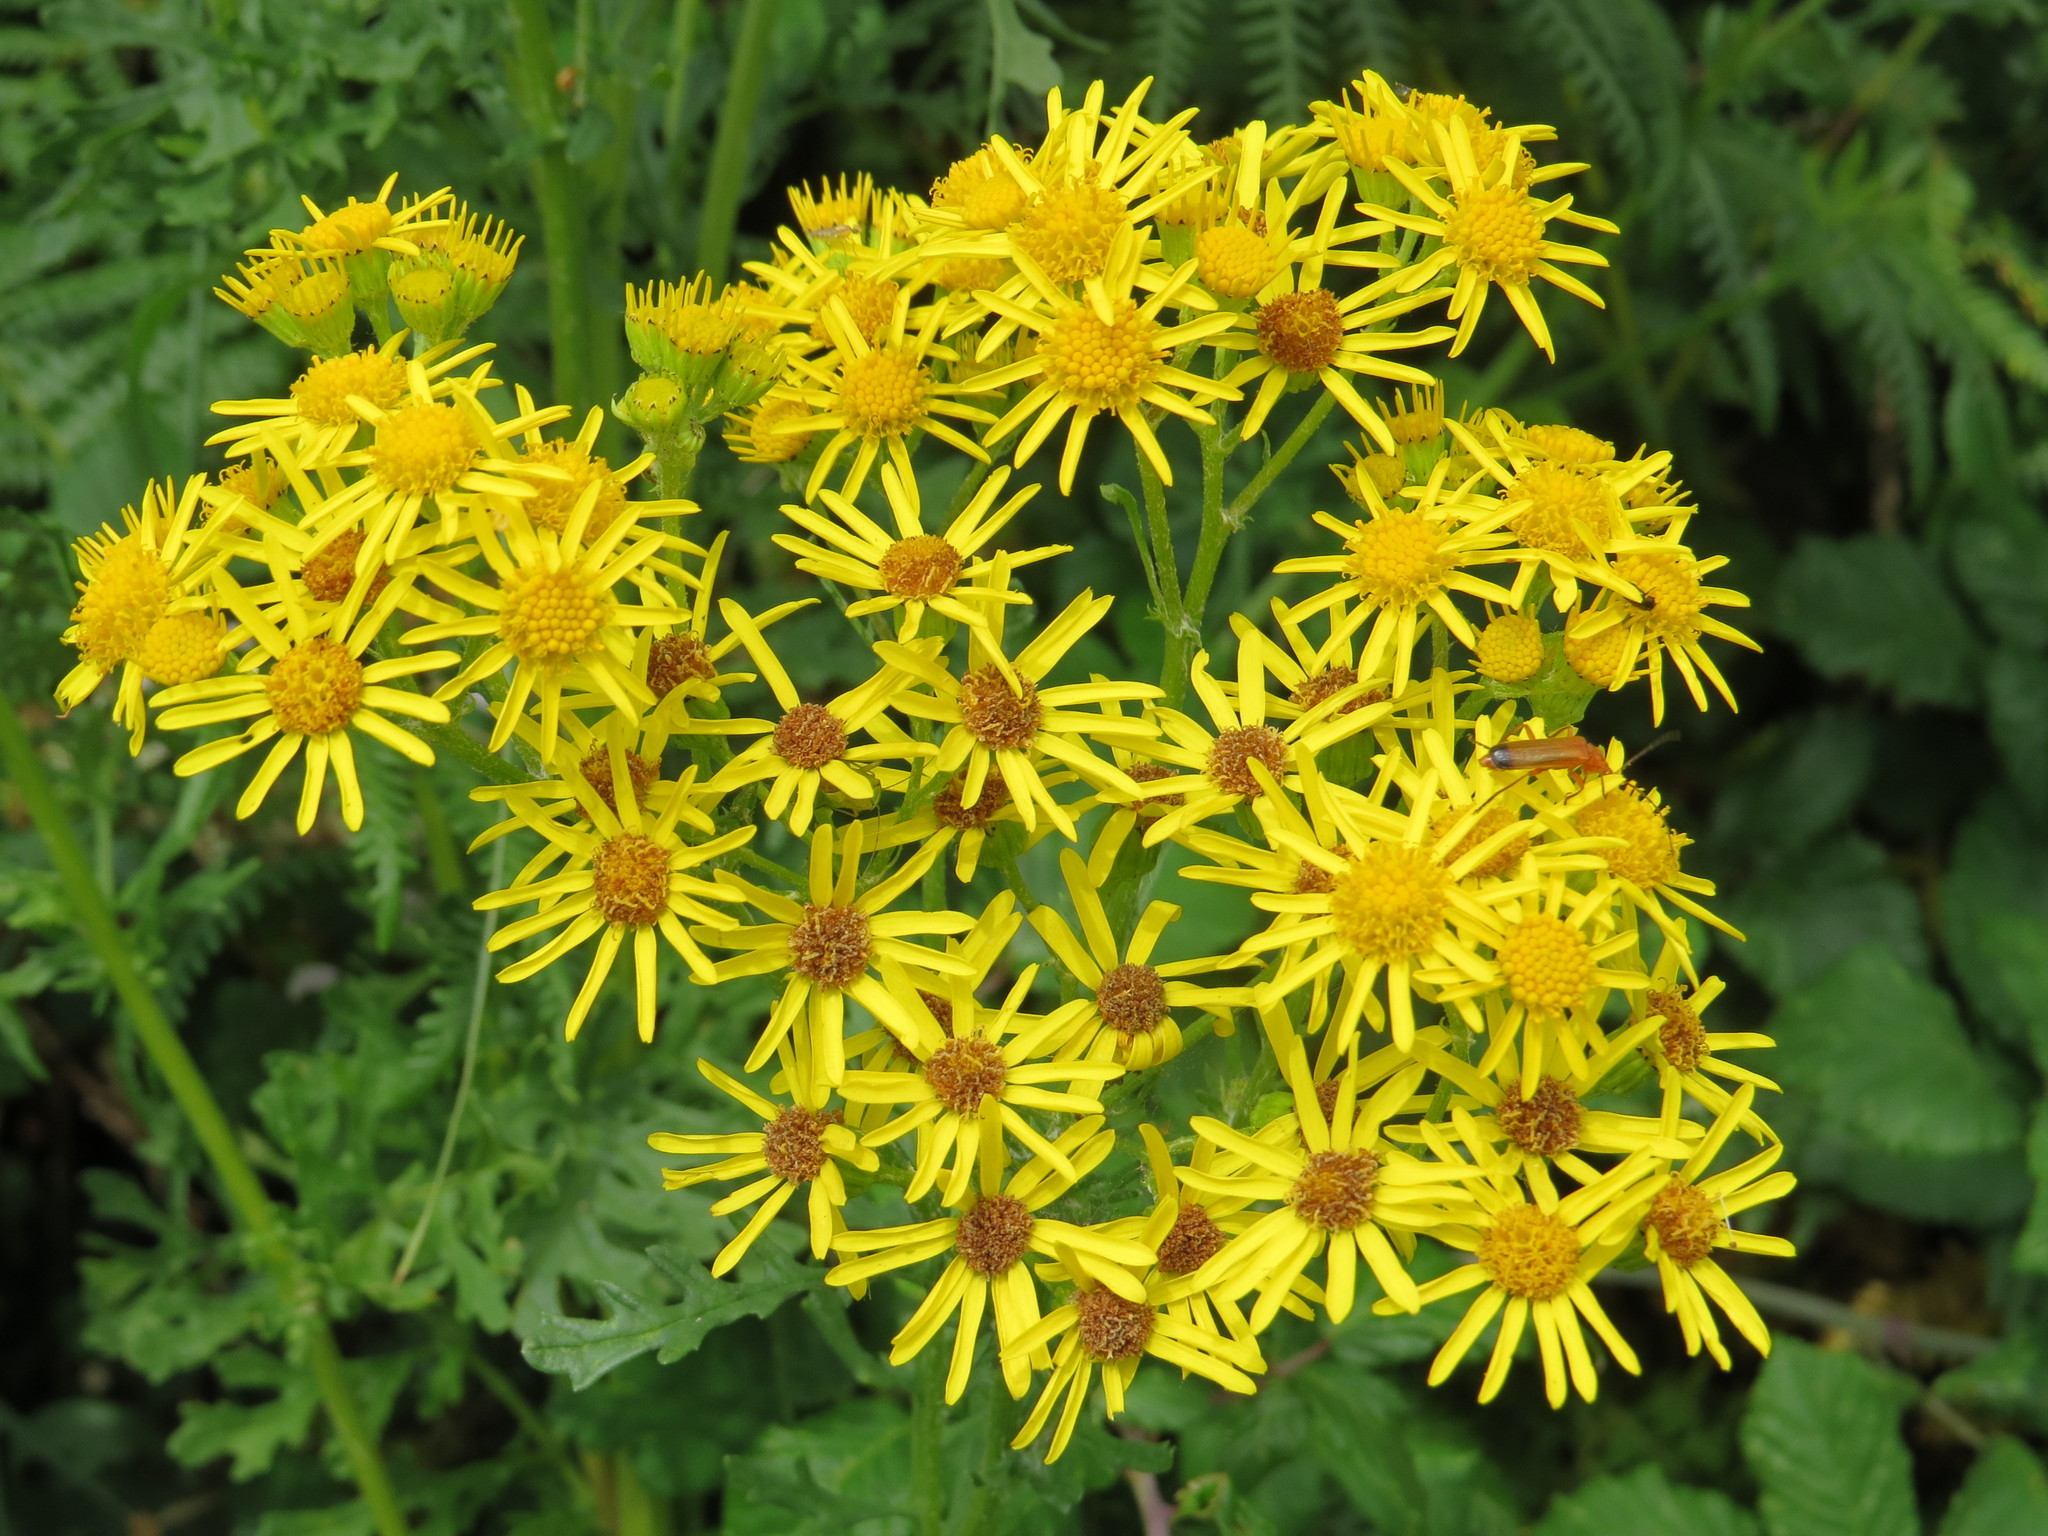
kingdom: Plantae
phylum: Tracheophyta
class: Magnoliopsida
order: Asterales
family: Asteraceae
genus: Jacobaea
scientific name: Jacobaea vulgaris
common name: Stinking willie
